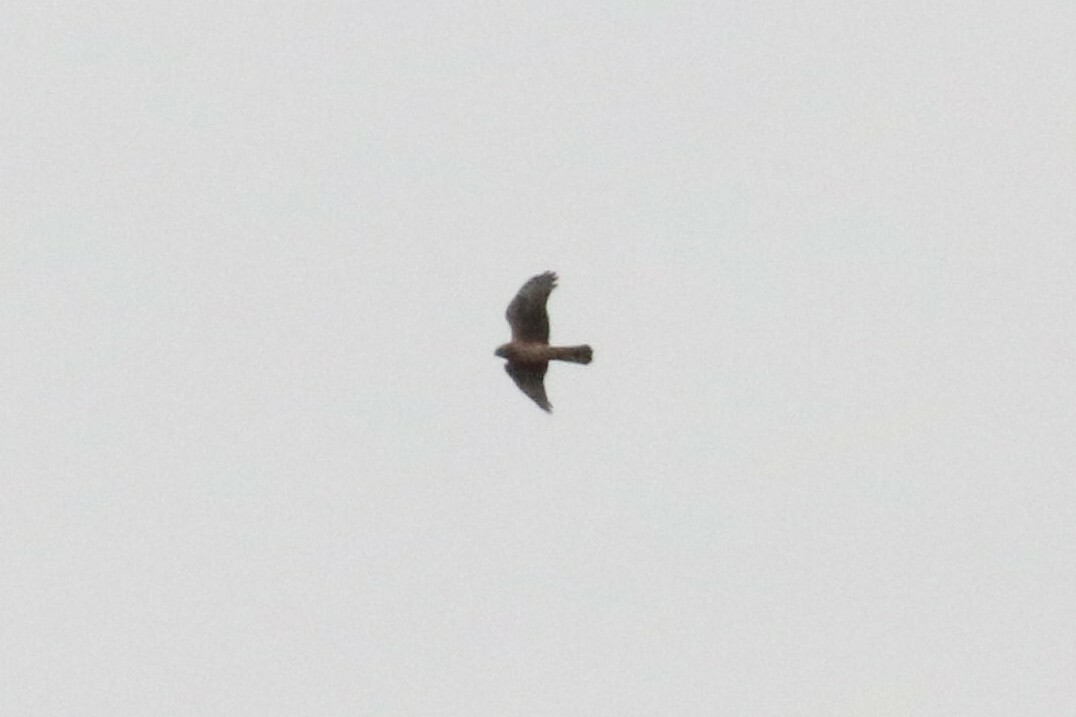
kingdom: Animalia
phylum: Chordata
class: Aves
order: Accipitriformes
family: Accipitridae
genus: Circus
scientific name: Circus cyaneus
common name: Hen harrier
